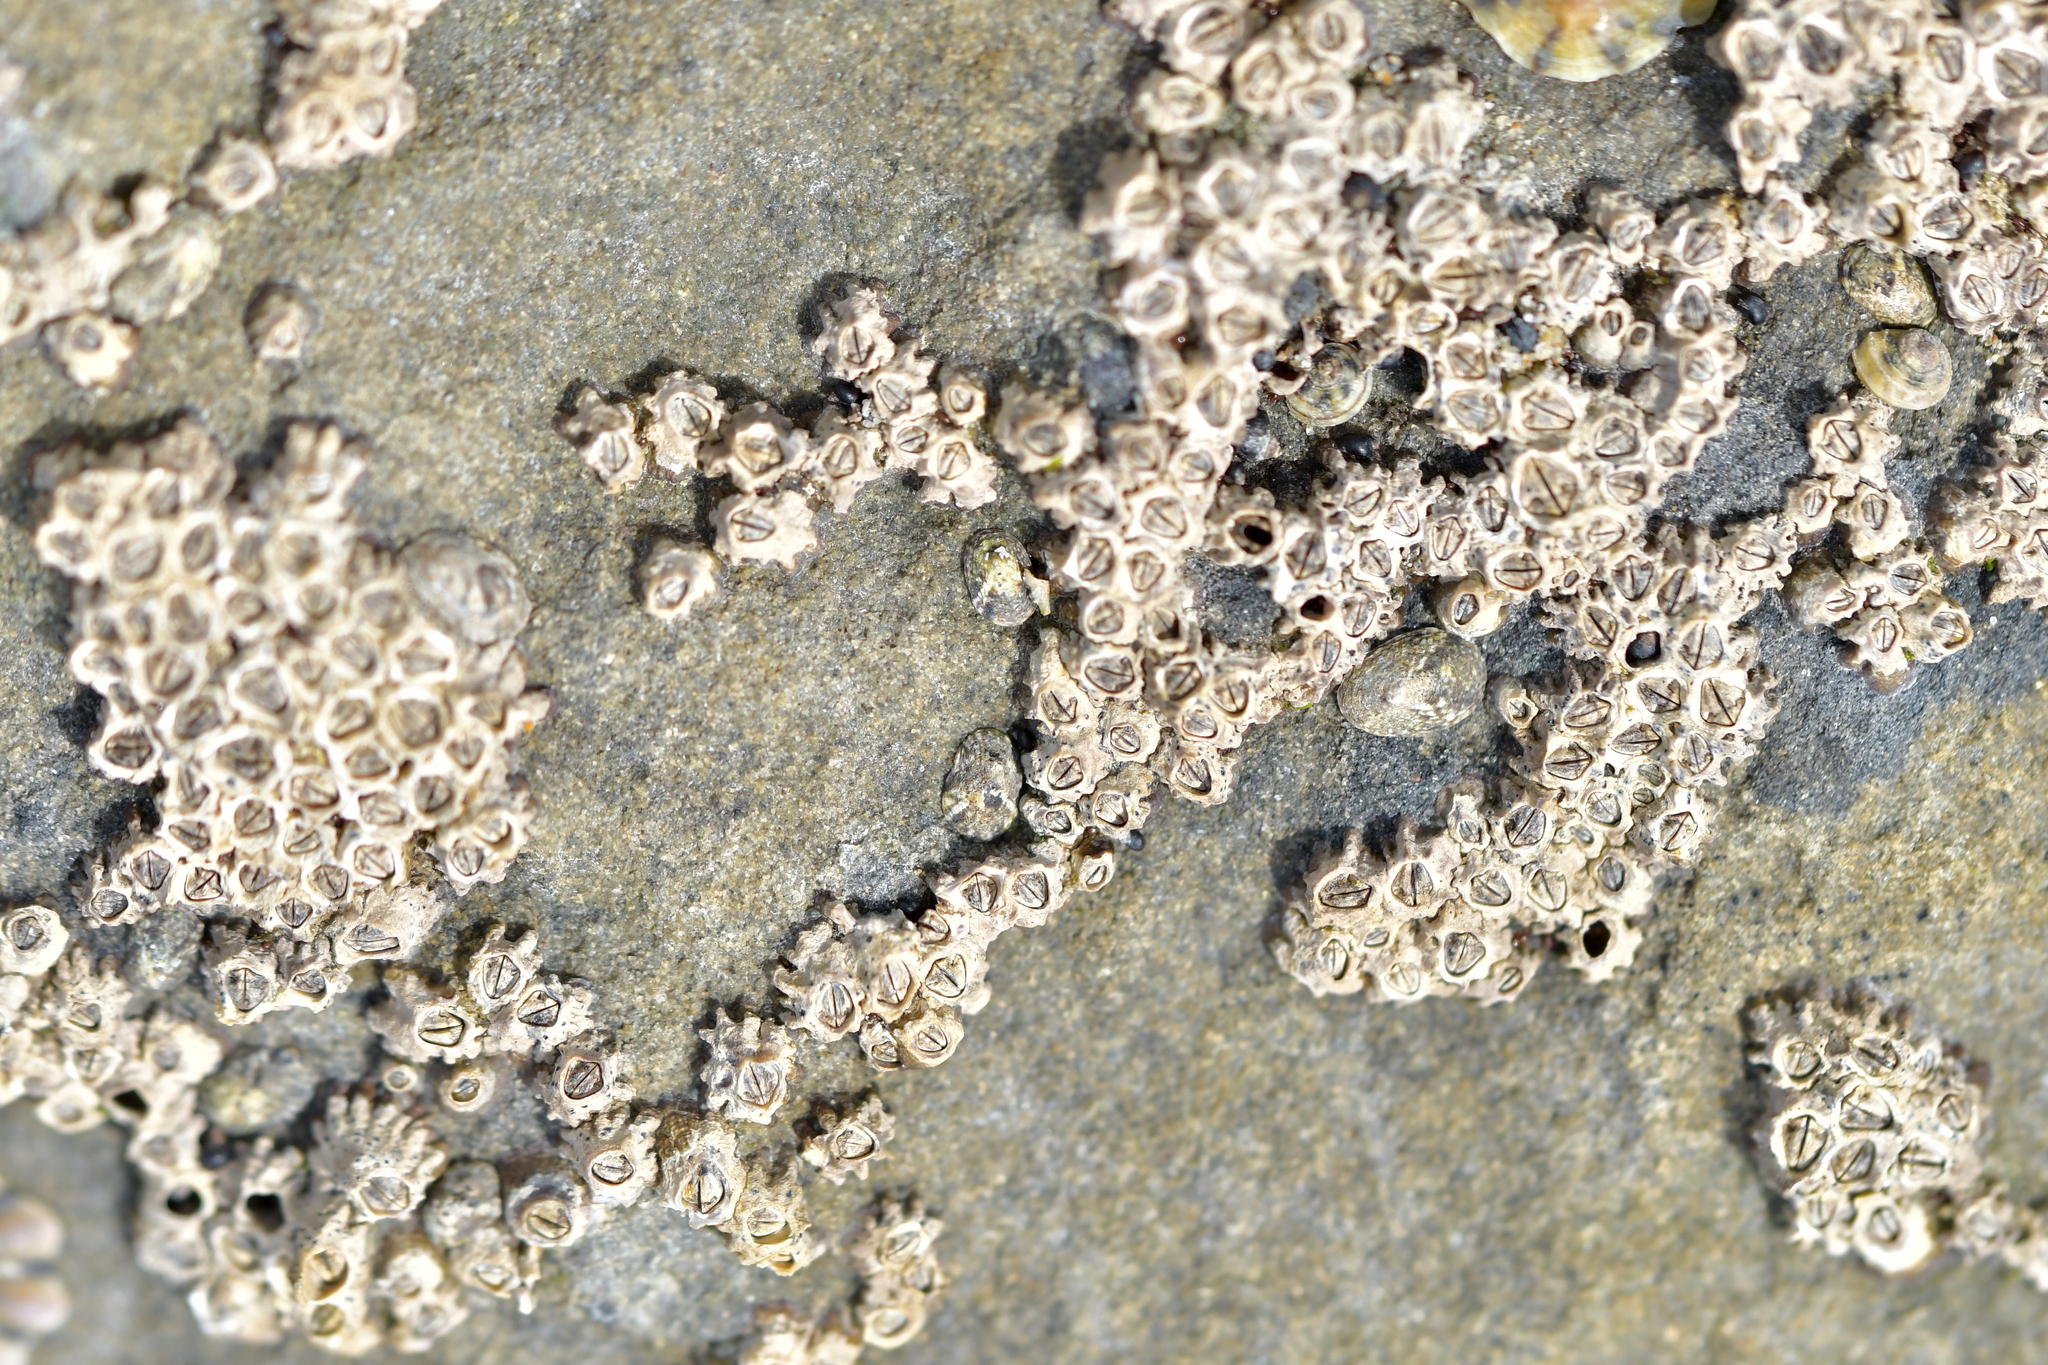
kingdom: Animalia
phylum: Arthropoda
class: Maxillopoda
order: Sessilia
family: Chthamalidae
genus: Chamaesipho
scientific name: Chamaesipho columna
